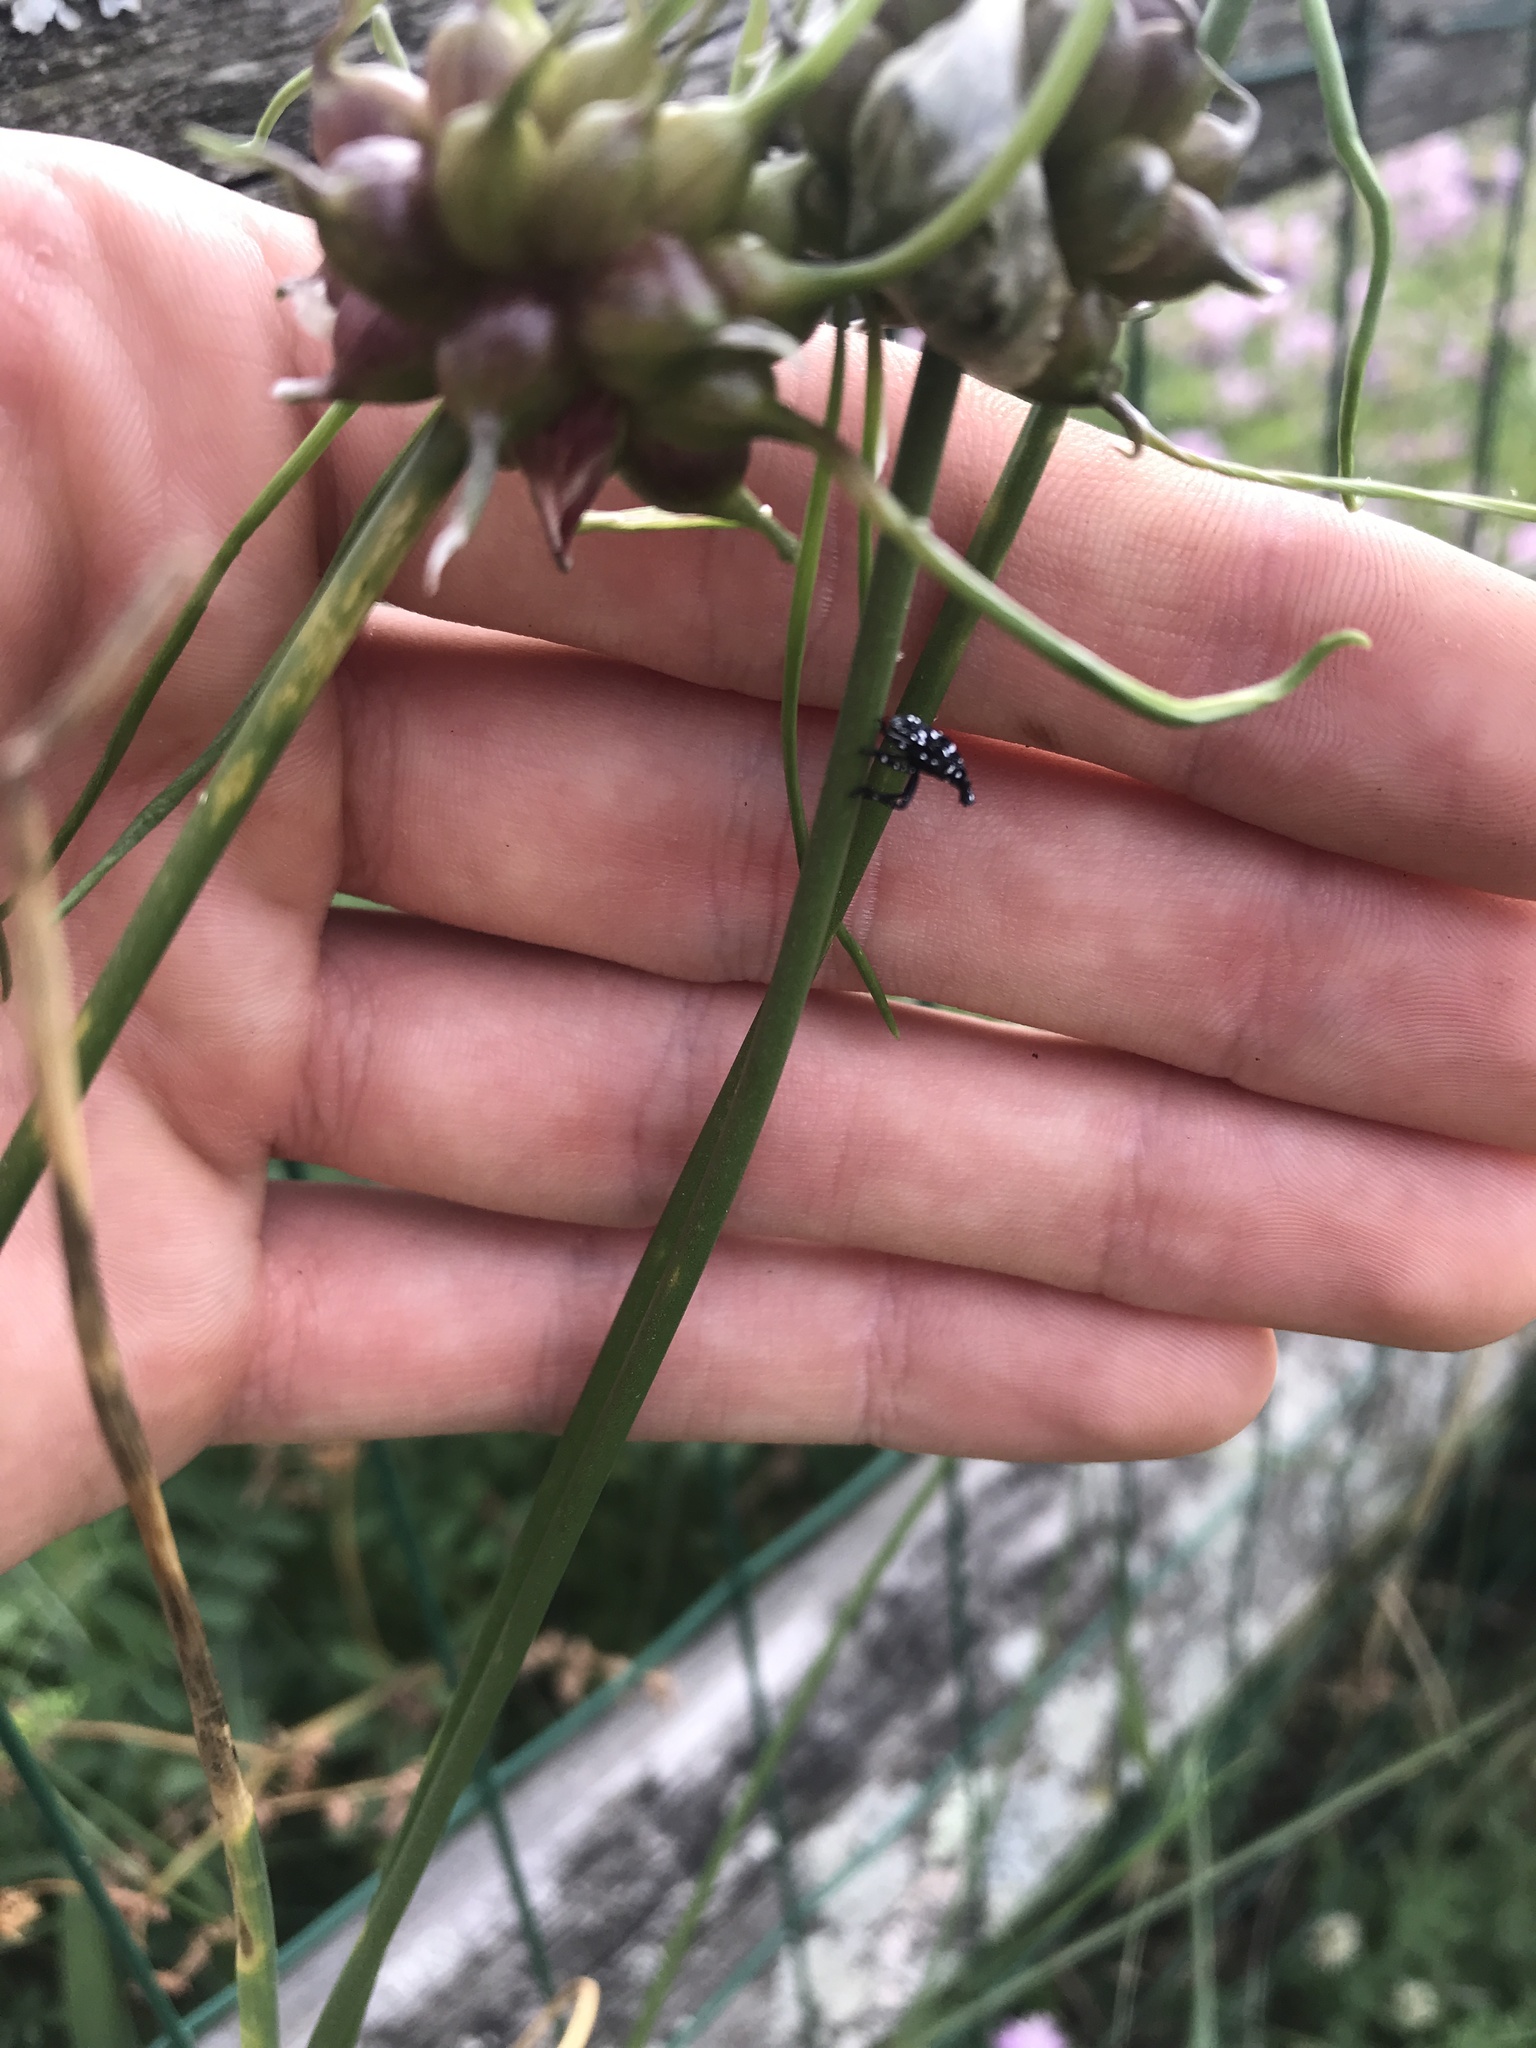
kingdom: Animalia
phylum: Arthropoda
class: Insecta
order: Hemiptera
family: Fulgoridae
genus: Lycorma
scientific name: Lycorma delicatula
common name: Spotted lanternfly
